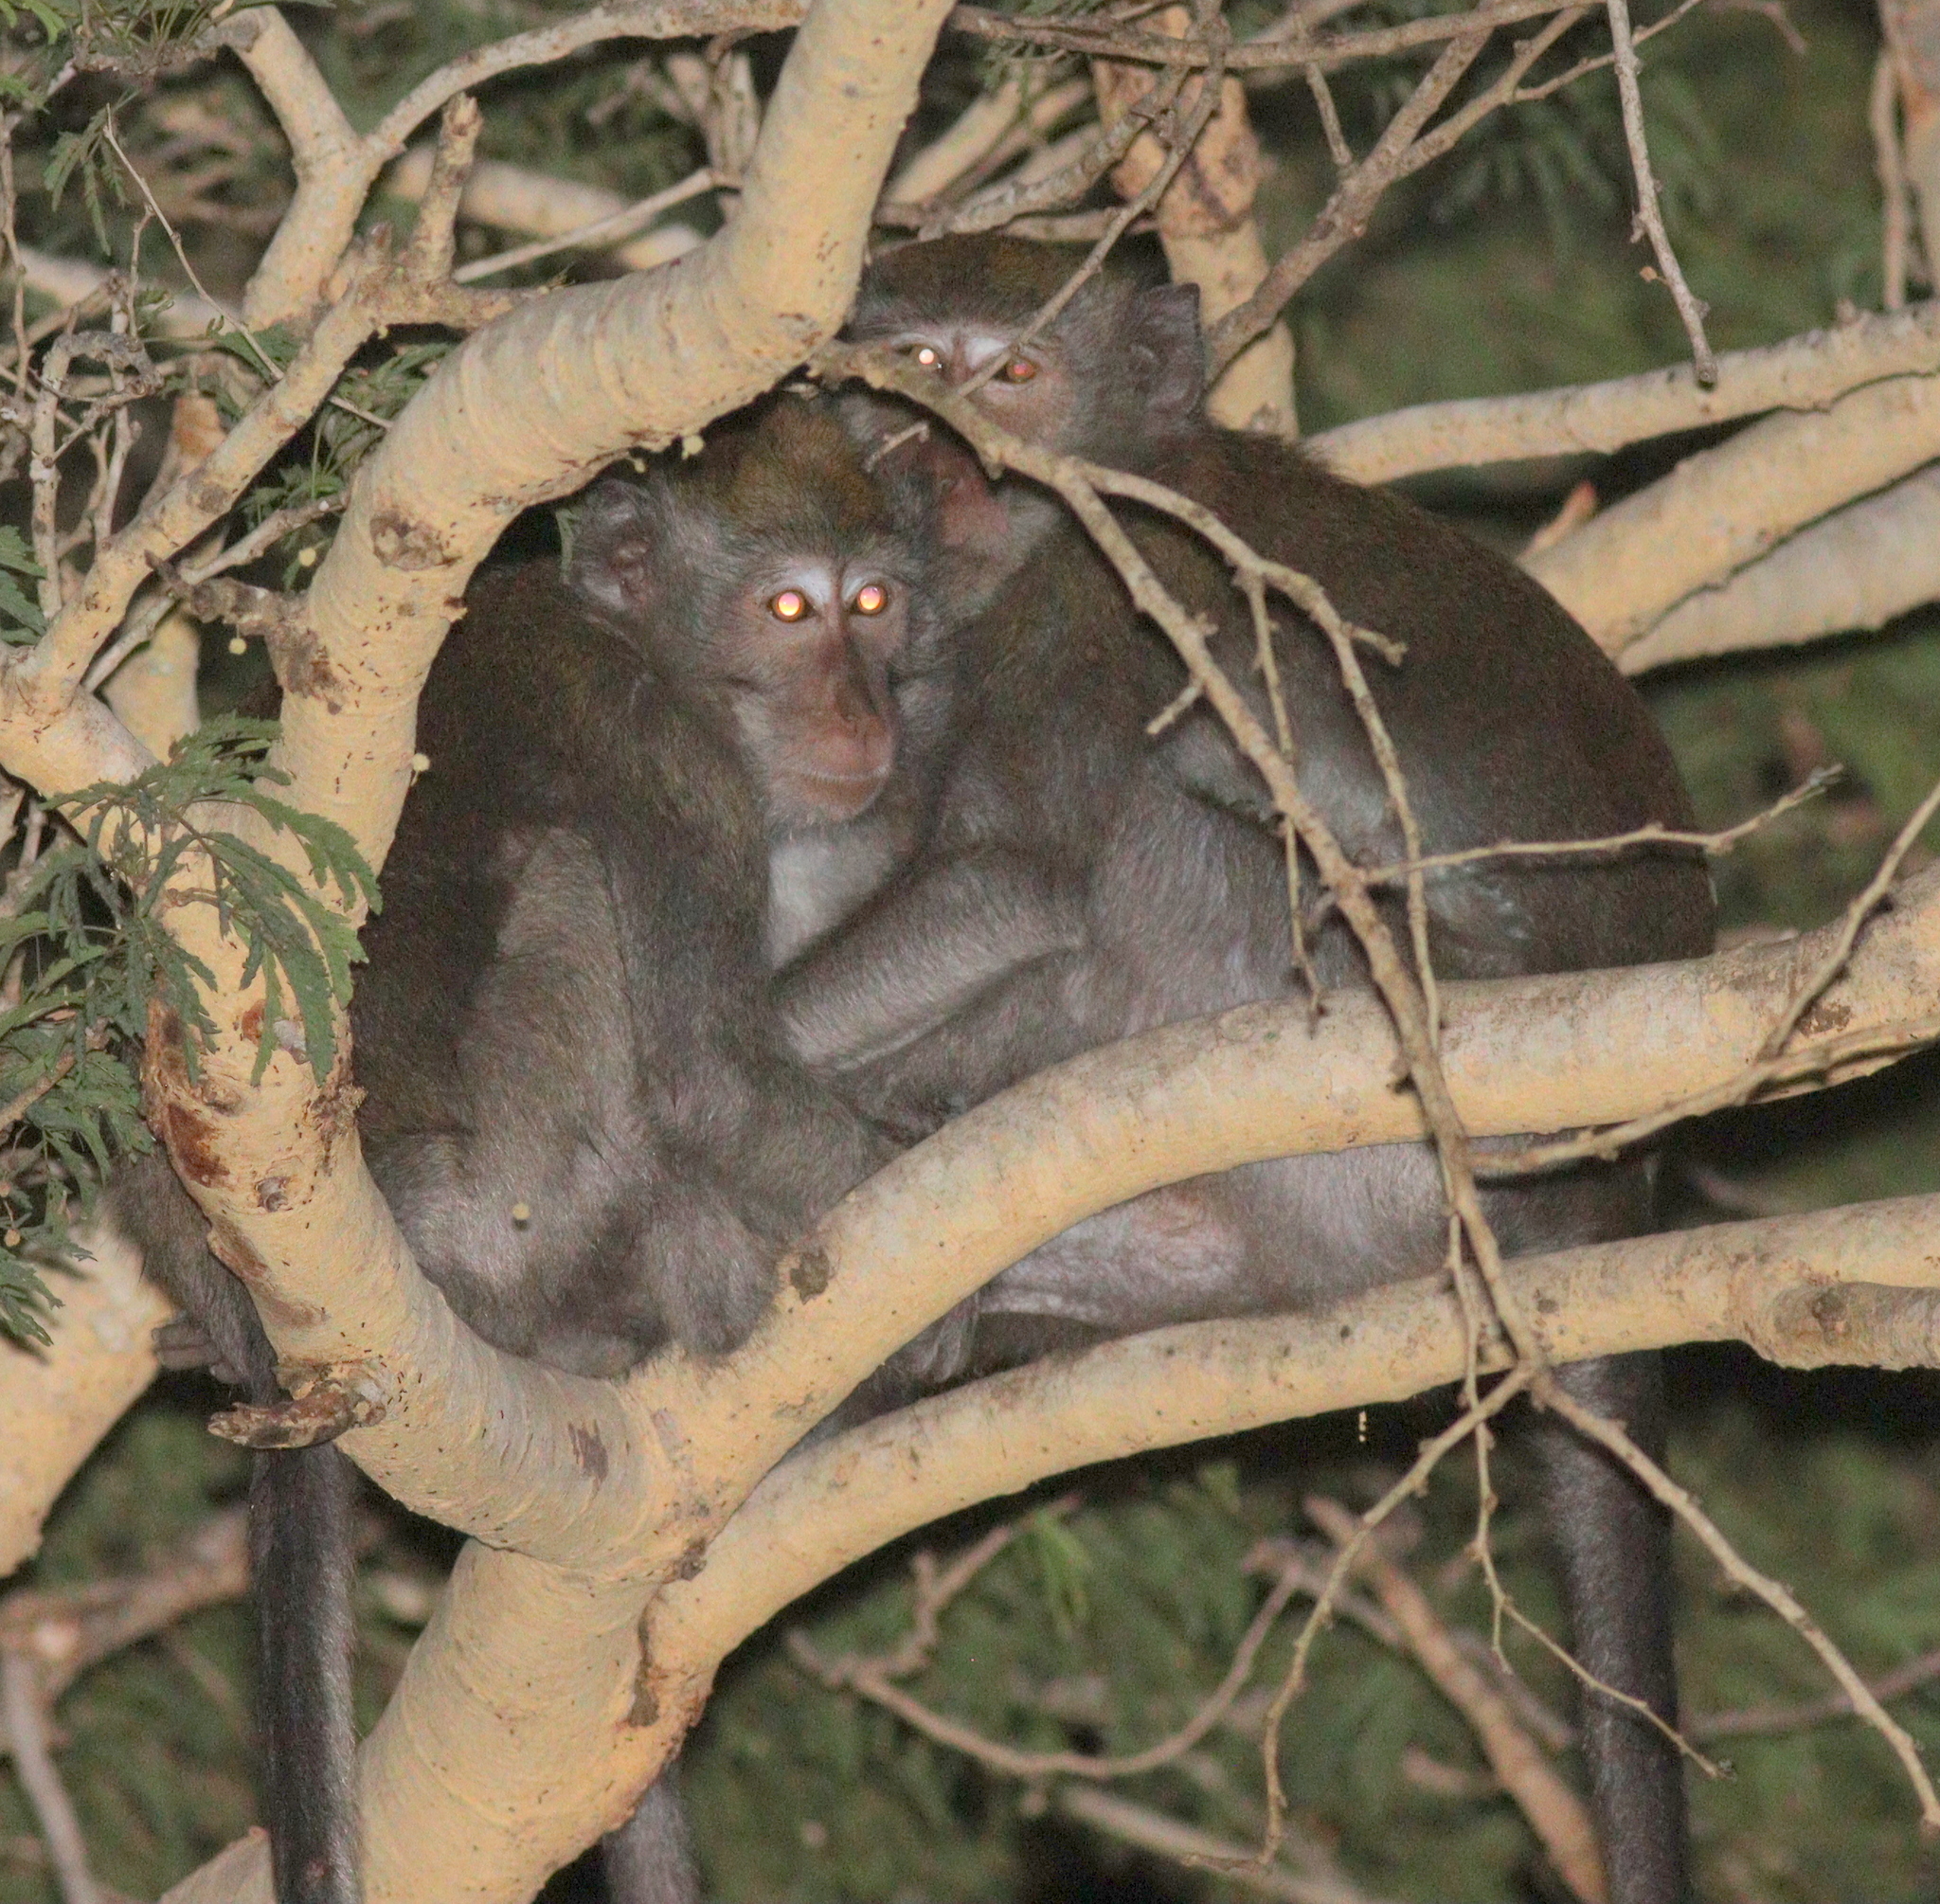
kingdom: Animalia
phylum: Chordata
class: Mammalia
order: Primates
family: Cercopithecidae
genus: Macaca
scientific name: Macaca fascicularis
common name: Crab-eating macaque
